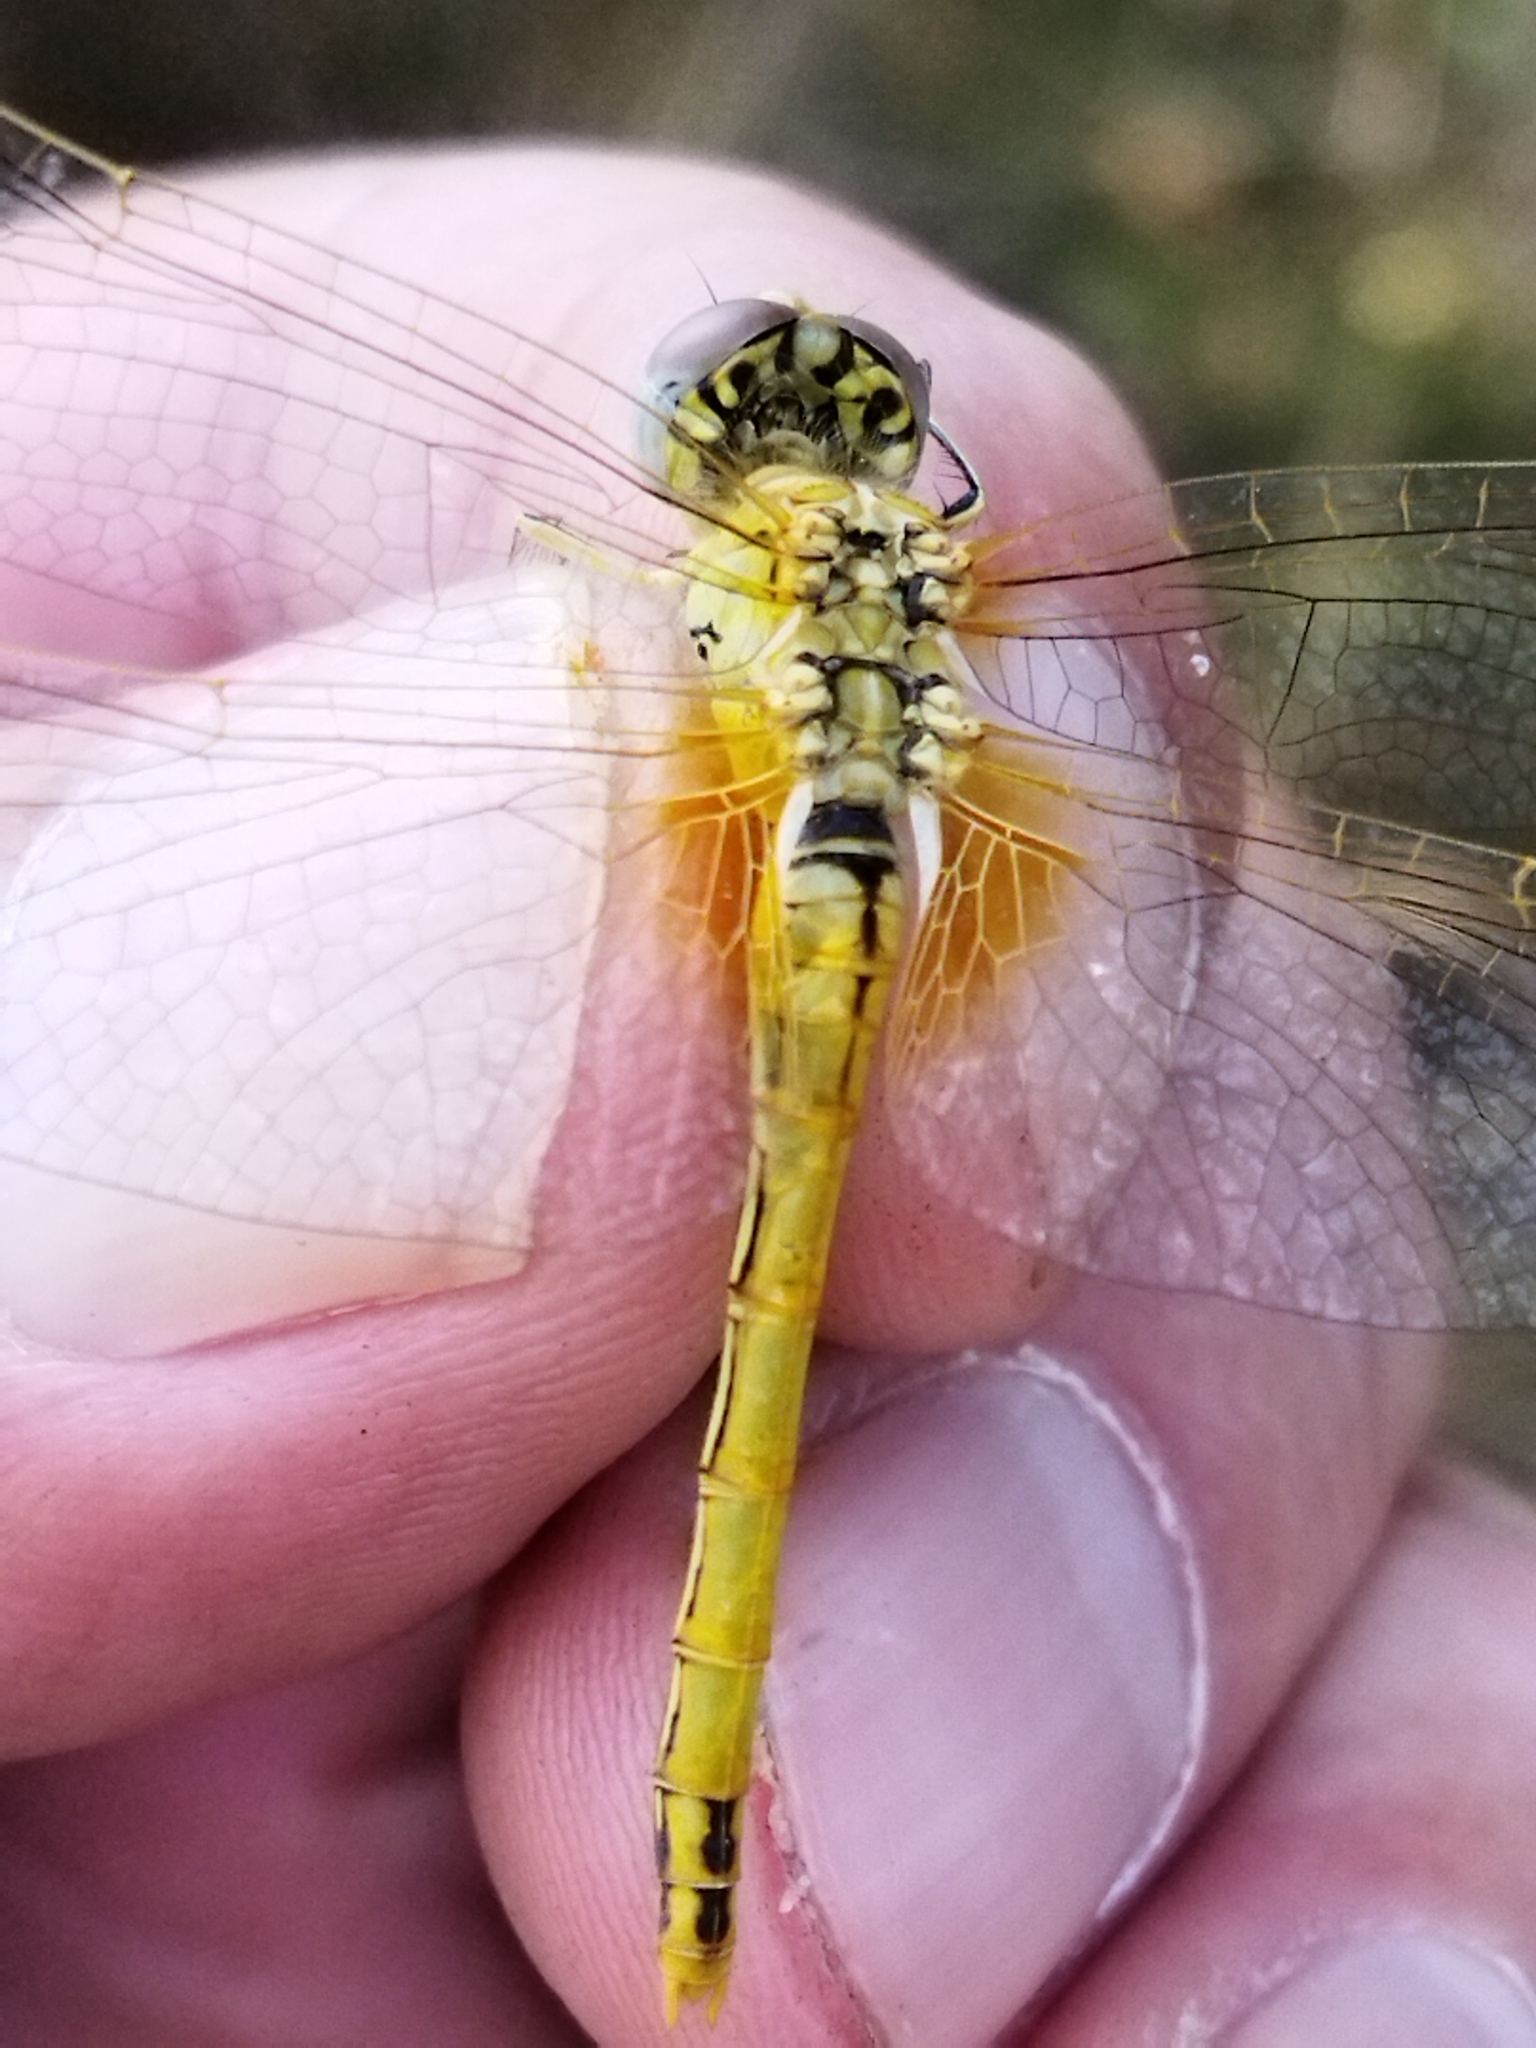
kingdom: Animalia
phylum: Arthropoda
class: Insecta
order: Odonata
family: Libellulidae
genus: Sympetrum
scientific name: Sympetrum fonscolombii
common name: Red-veined darter
